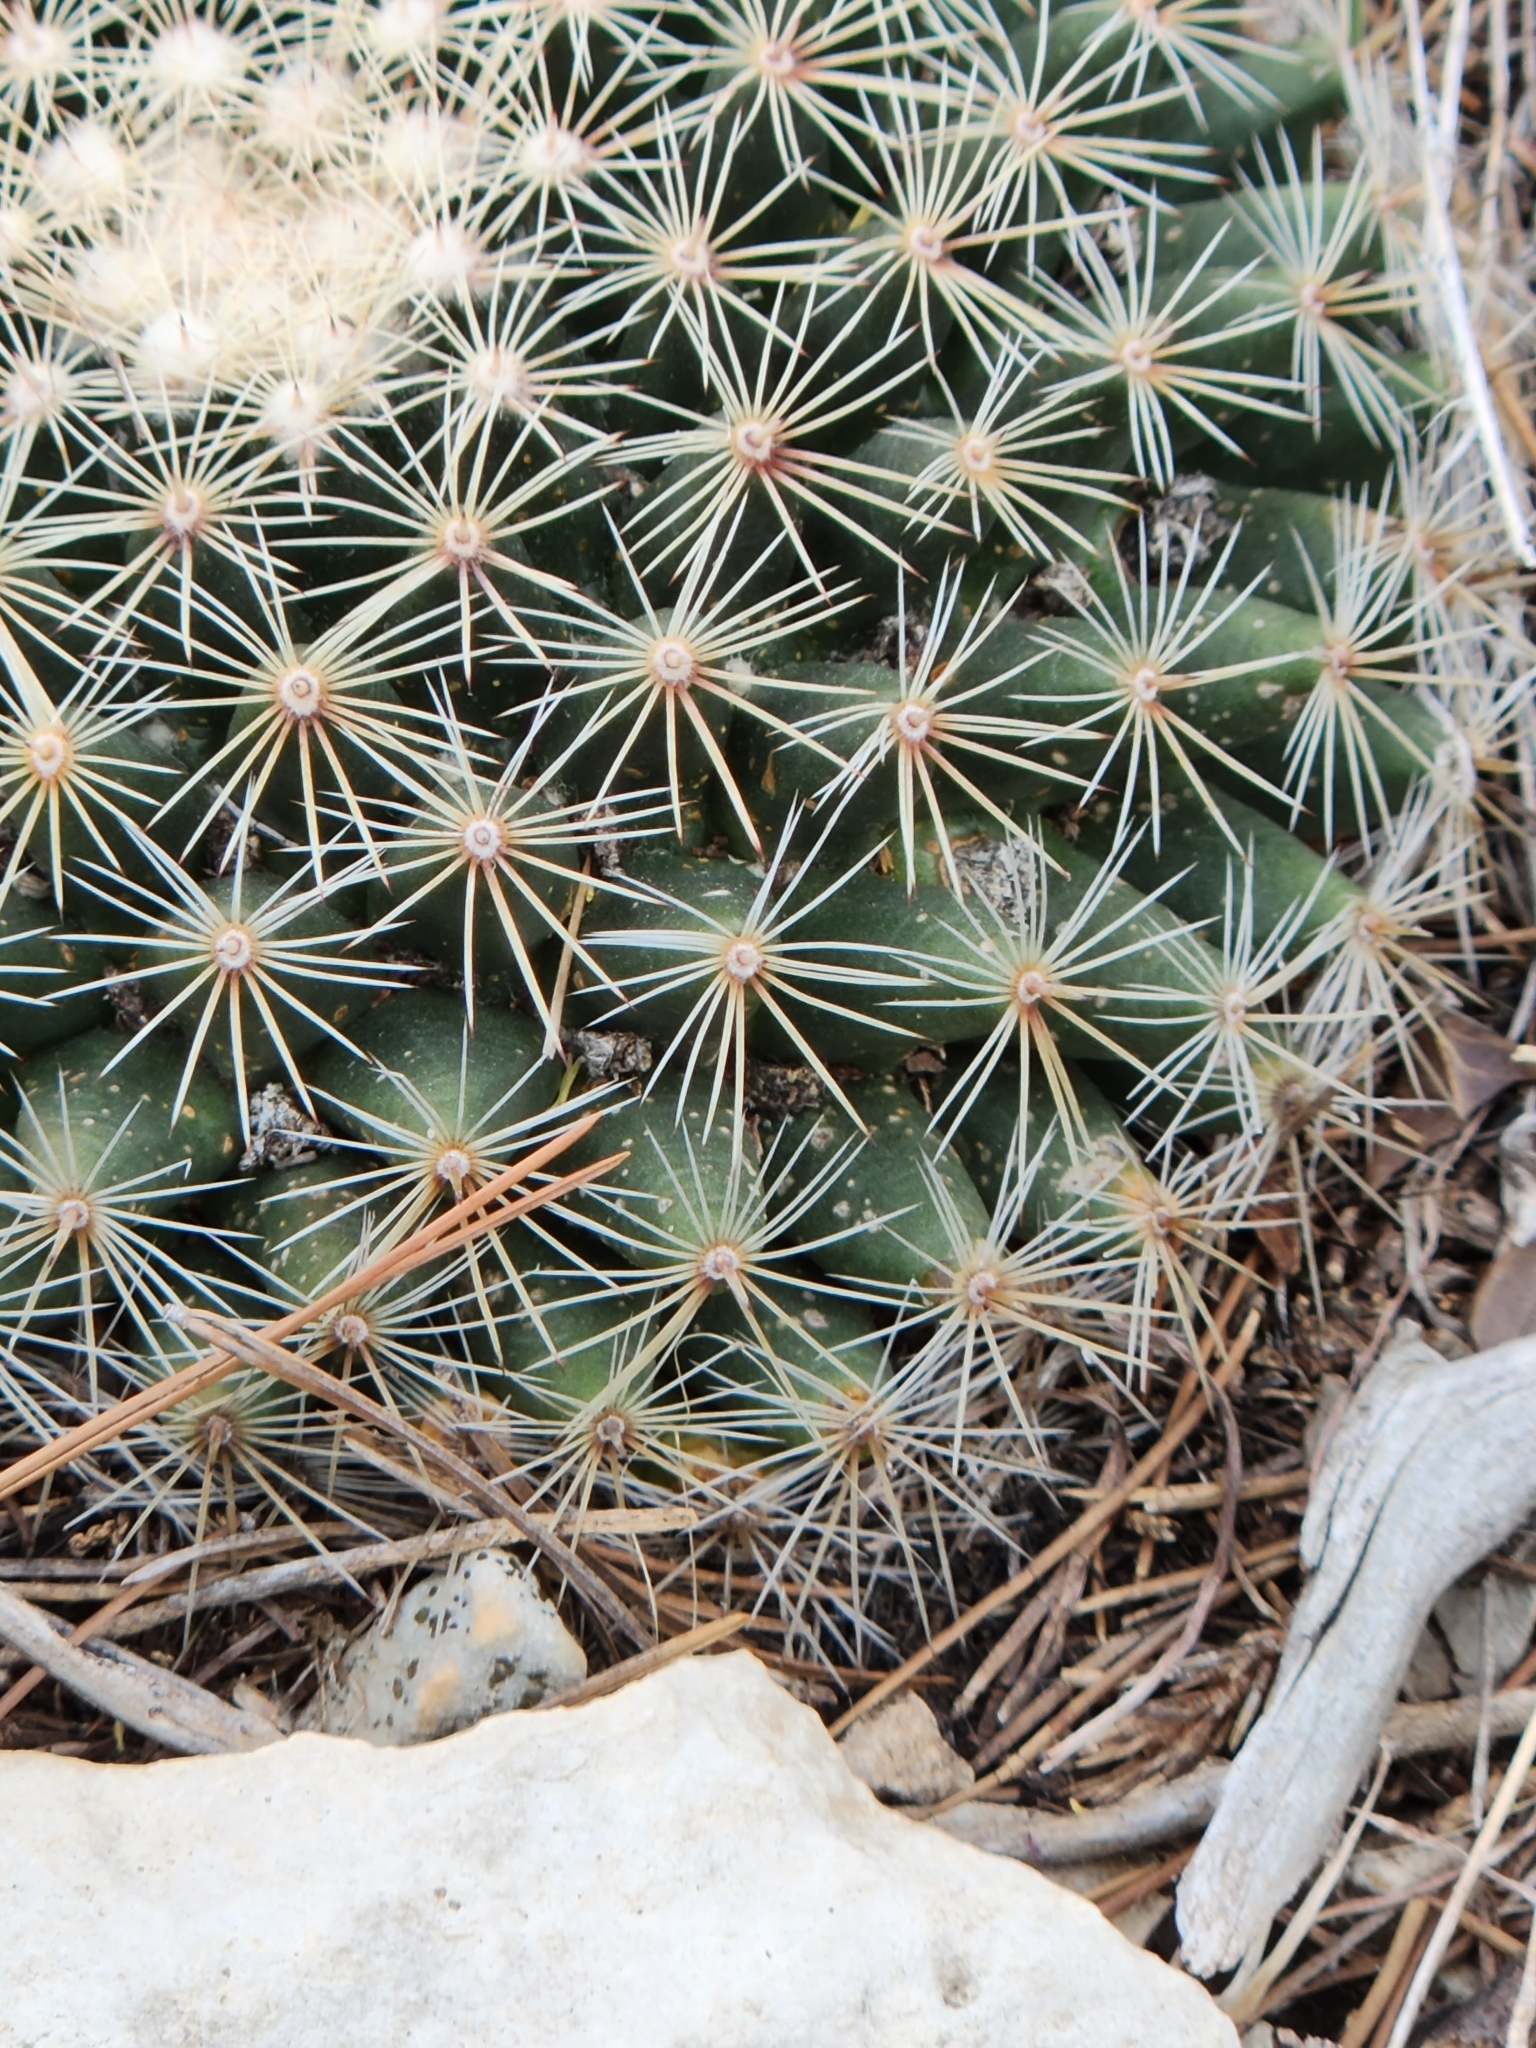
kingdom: Plantae
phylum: Tracheophyta
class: Magnoliopsida
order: Caryophyllales
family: Cactaceae
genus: Mammillaria
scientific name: Mammillaria heyderi
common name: Little nipple cactus
